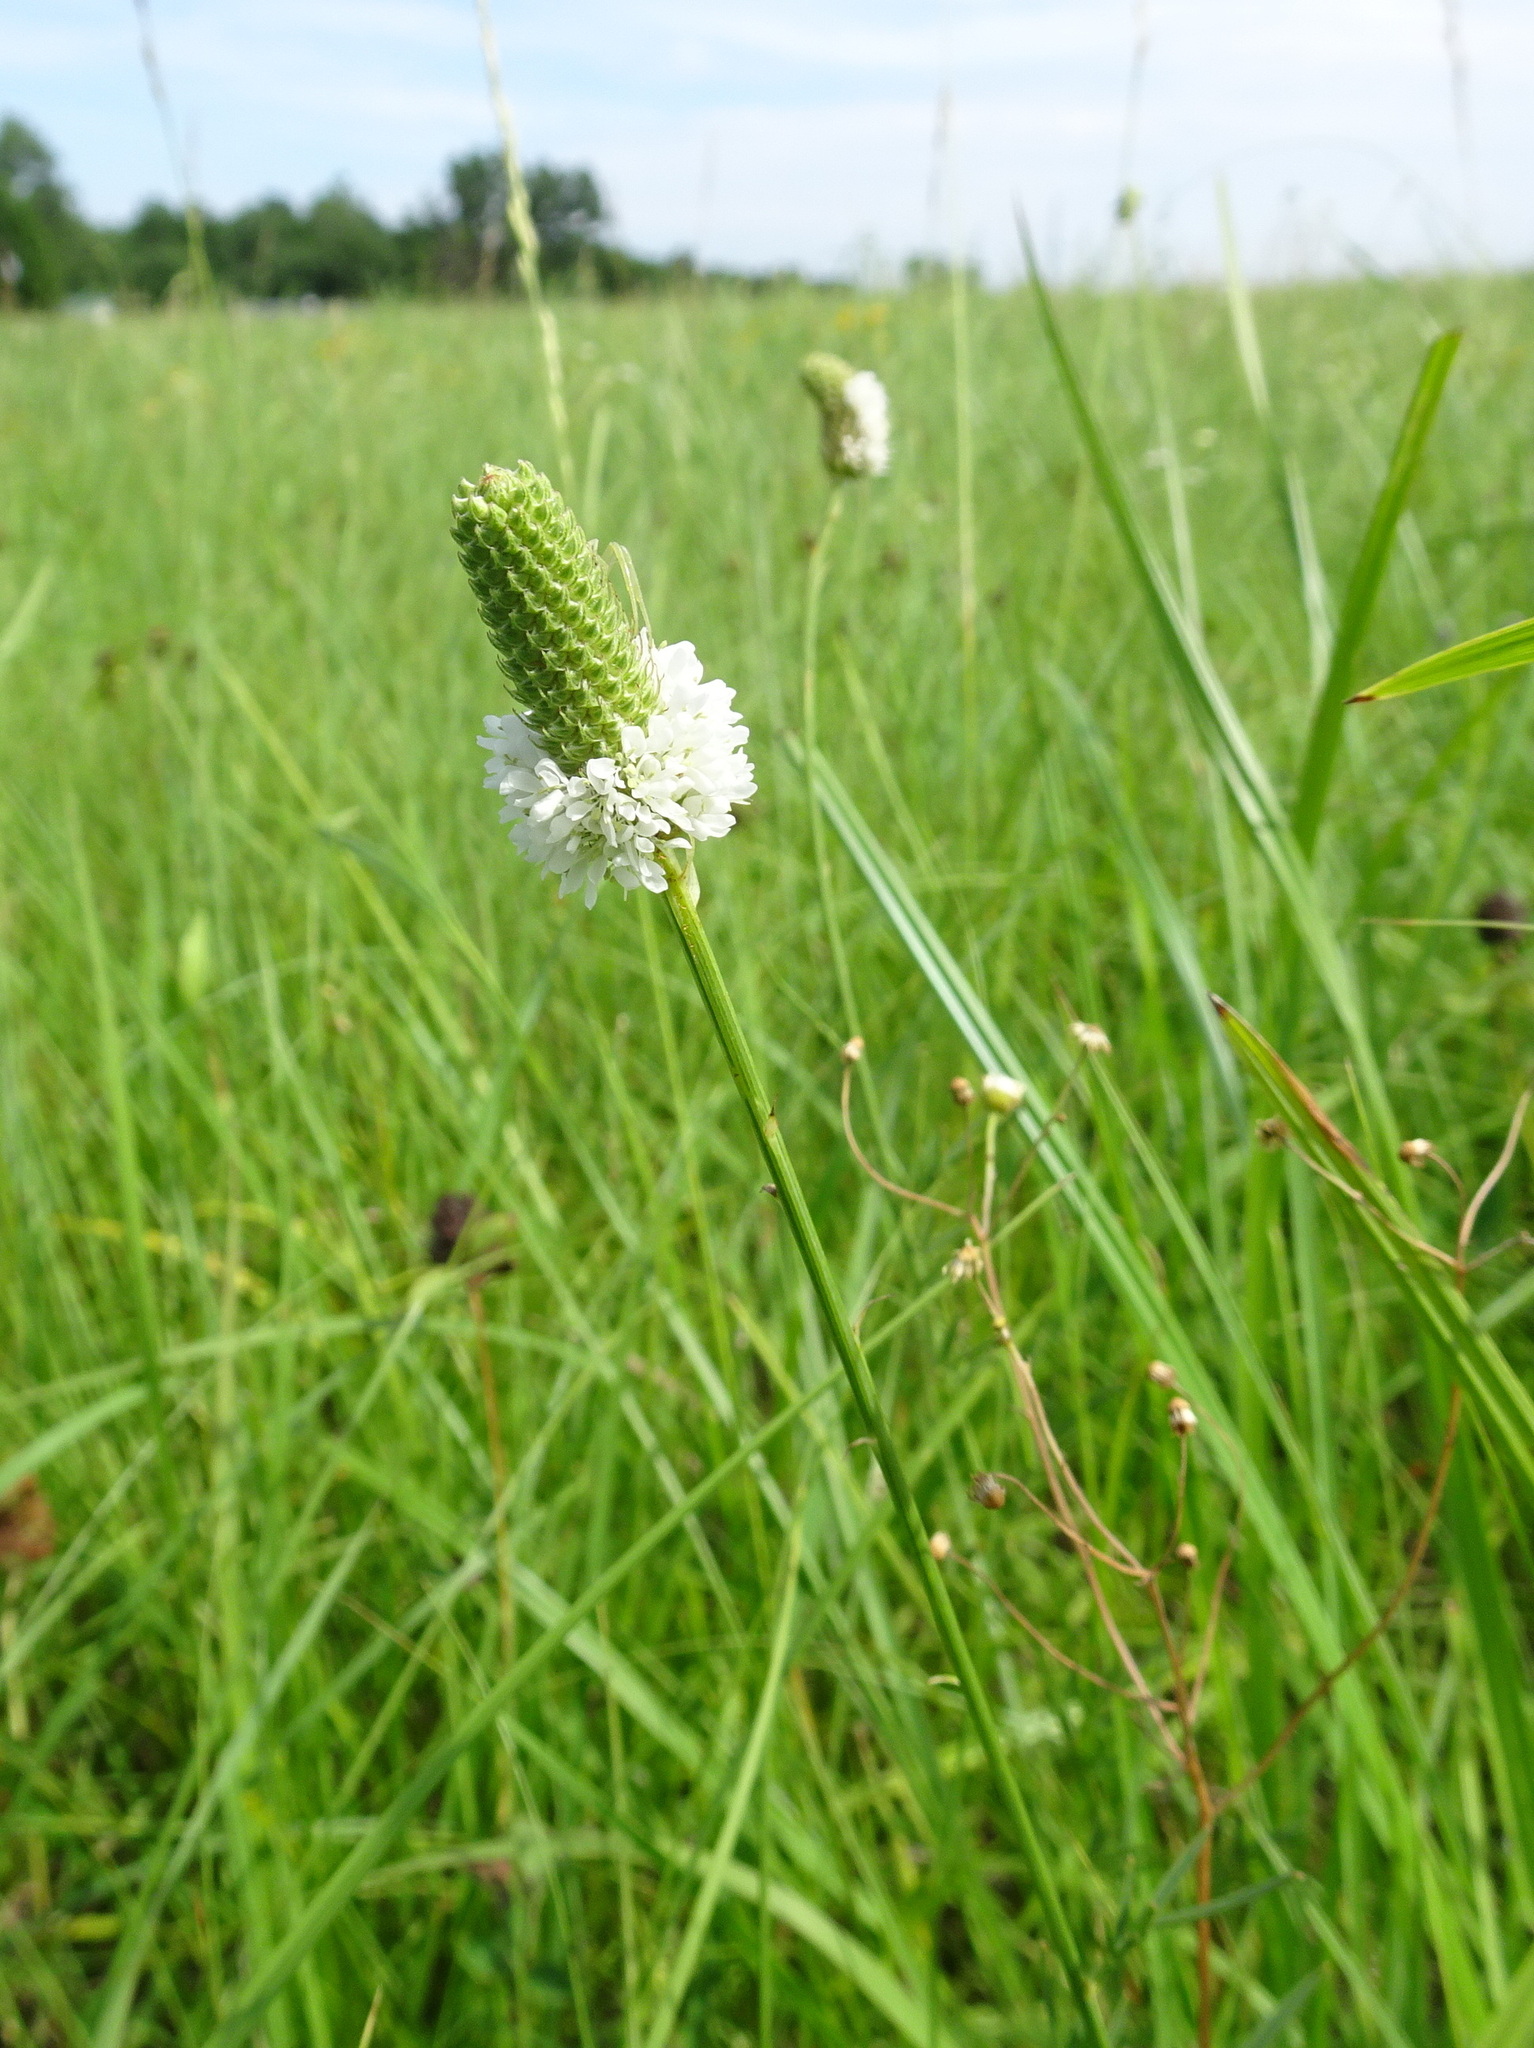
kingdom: Plantae
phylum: Tracheophyta
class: Magnoliopsida
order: Fabales
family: Fabaceae
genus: Dalea
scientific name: Dalea candida
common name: White prairie-clover
